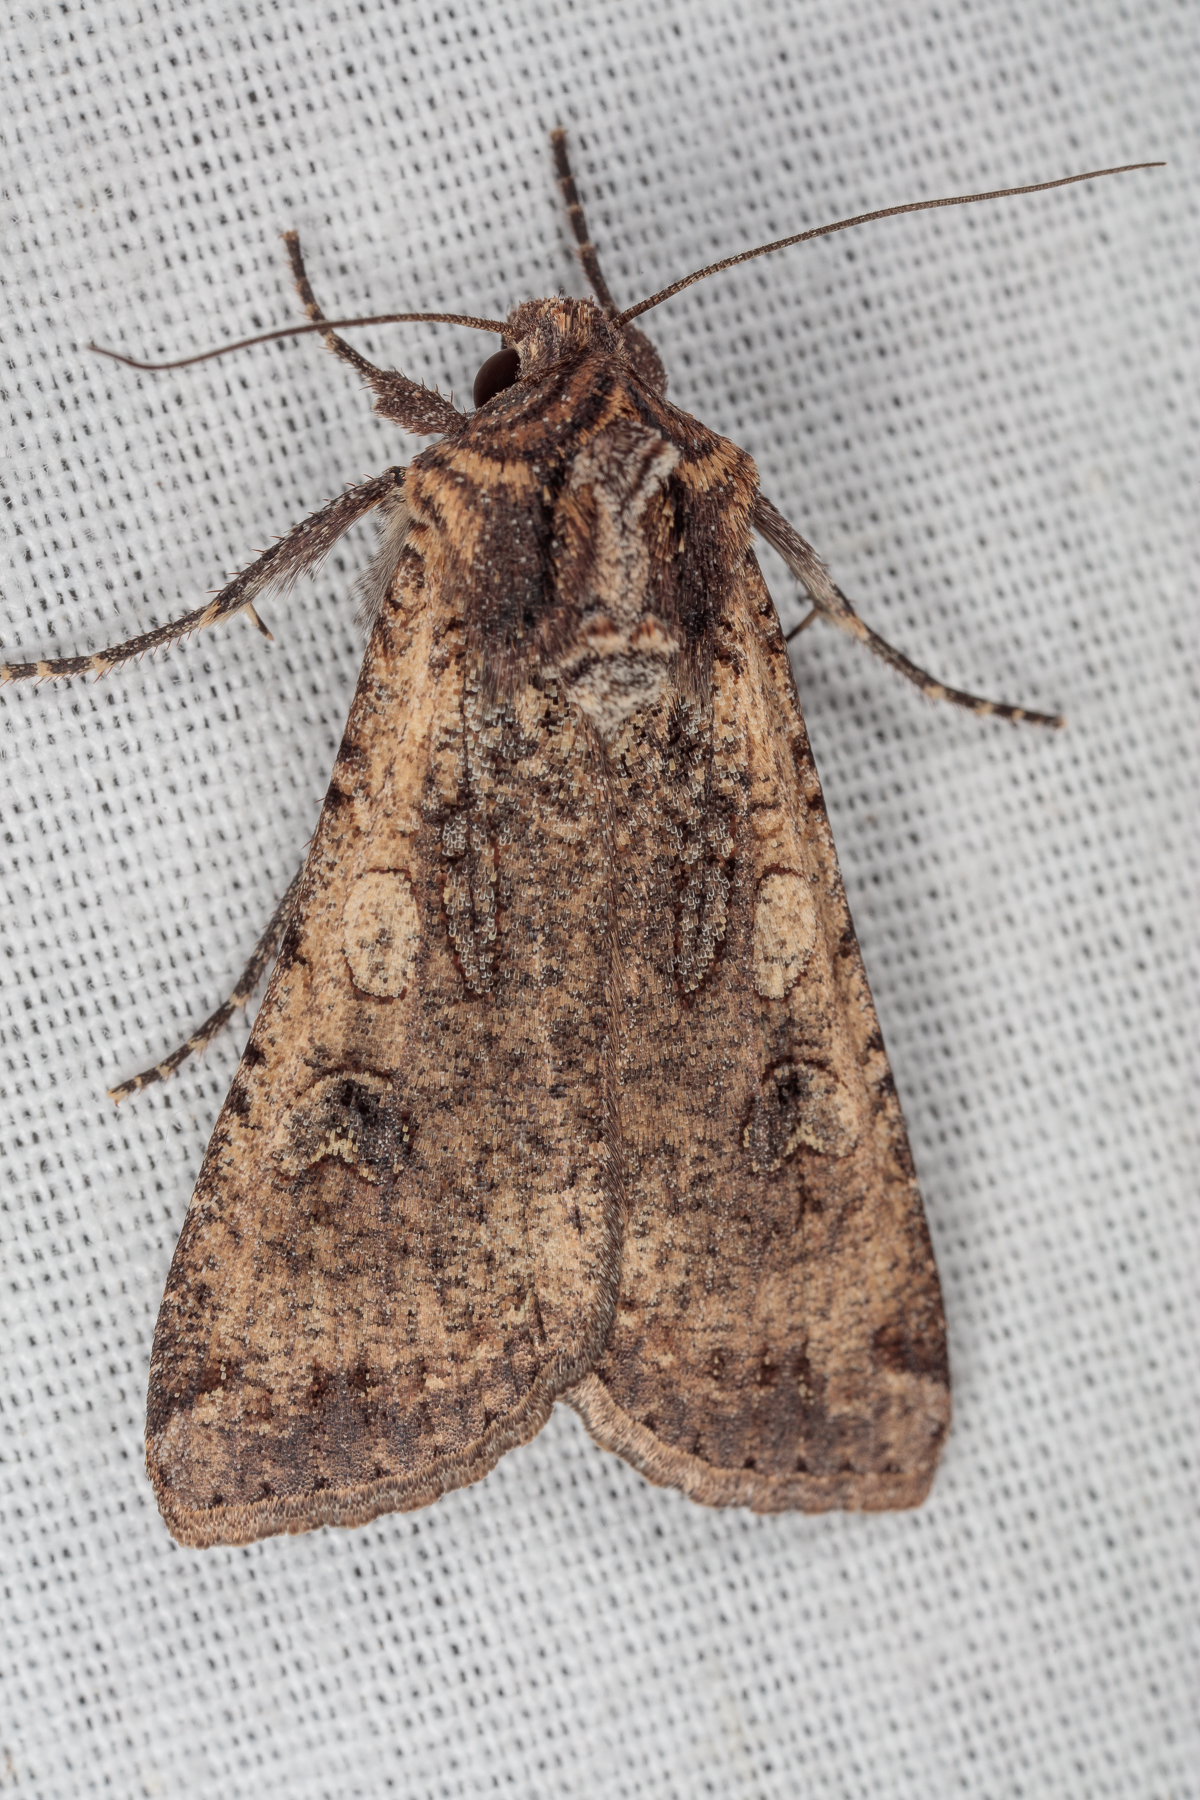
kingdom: Animalia
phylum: Arthropoda
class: Insecta
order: Lepidoptera
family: Noctuidae
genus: Peridroma
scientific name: Peridroma saucia
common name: Pearly underwing
